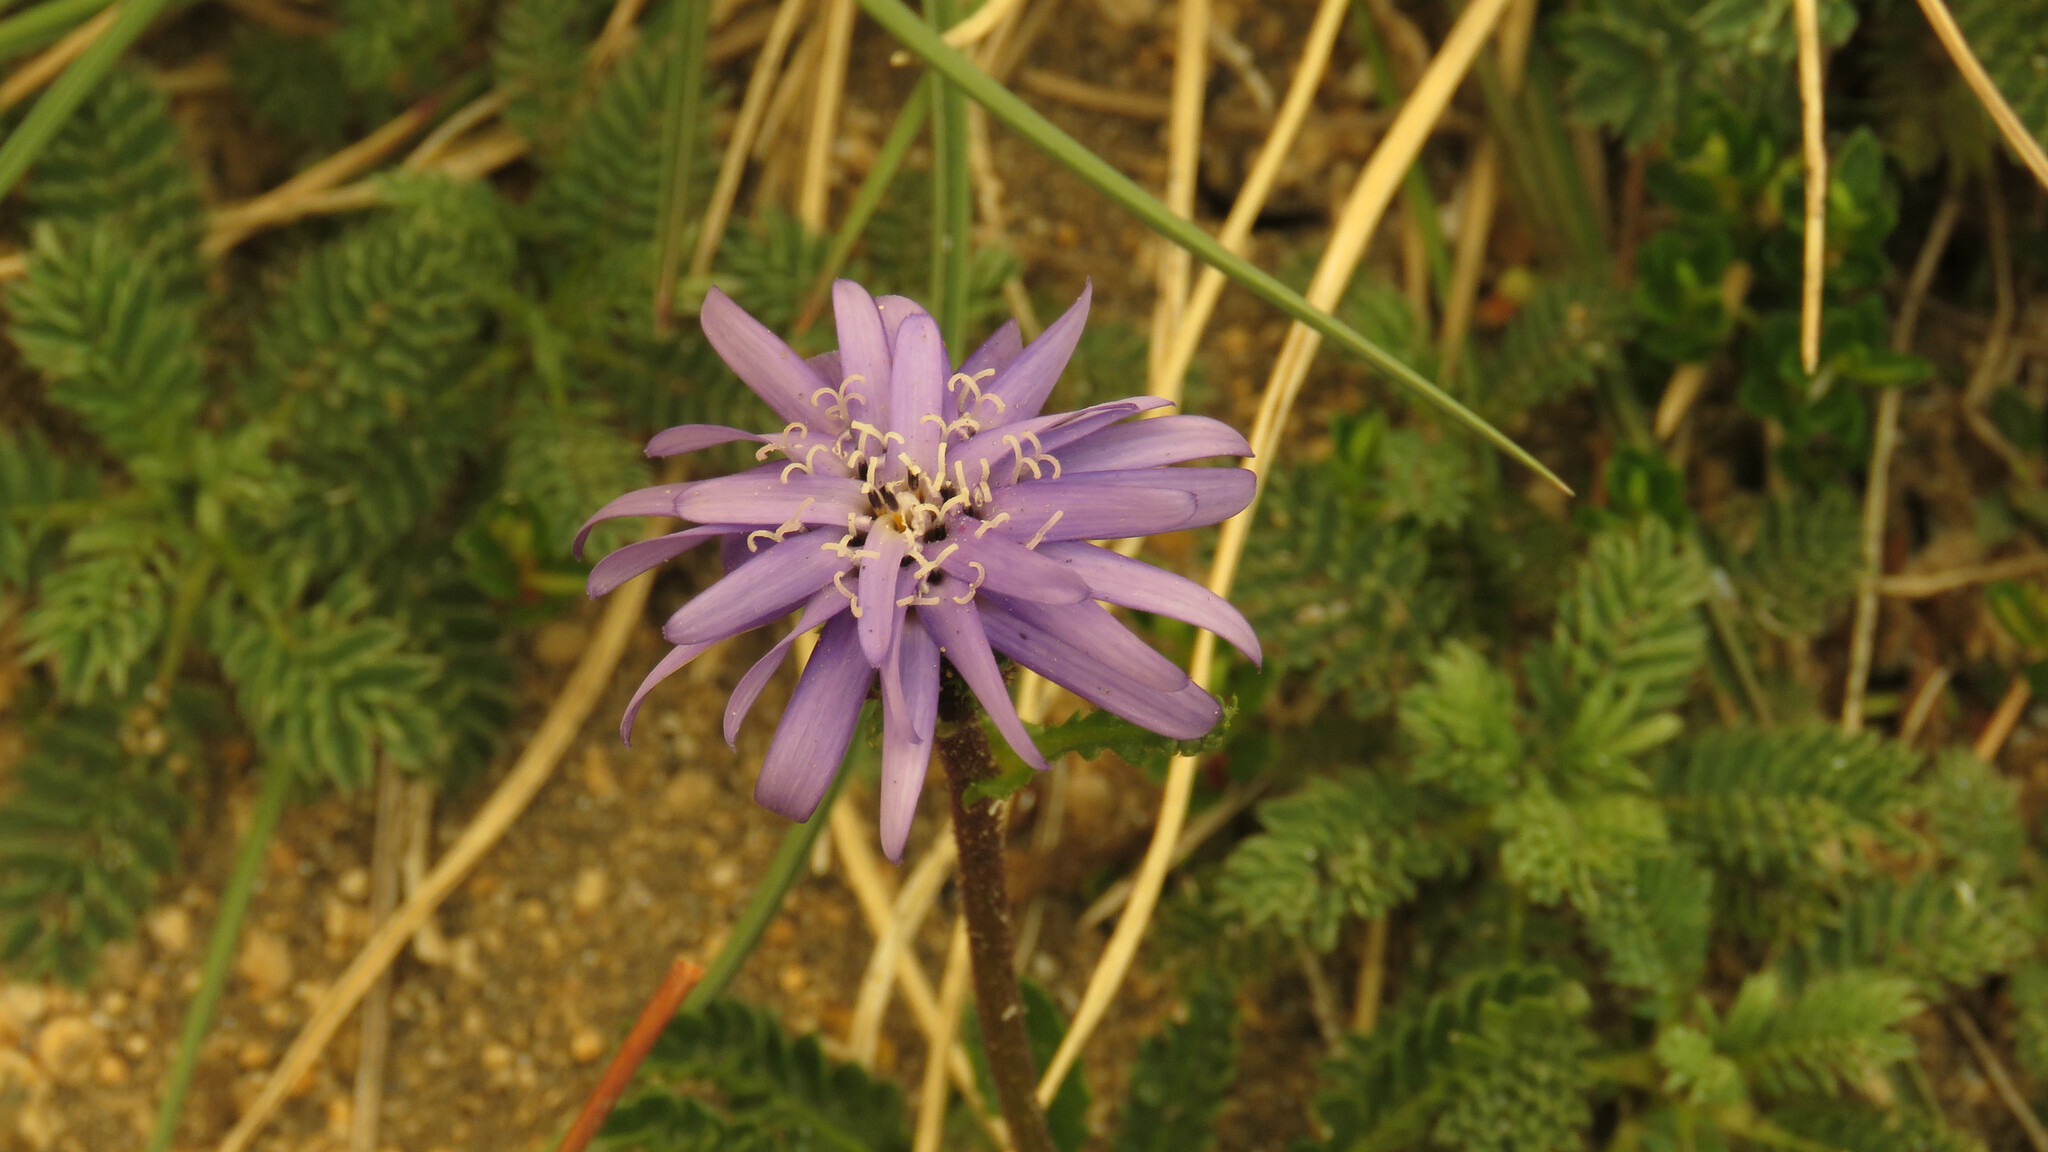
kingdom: Plantae
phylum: Tracheophyta
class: Magnoliopsida
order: Asterales
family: Asteraceae
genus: Perezia
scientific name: Perezia pedicularidifolia
